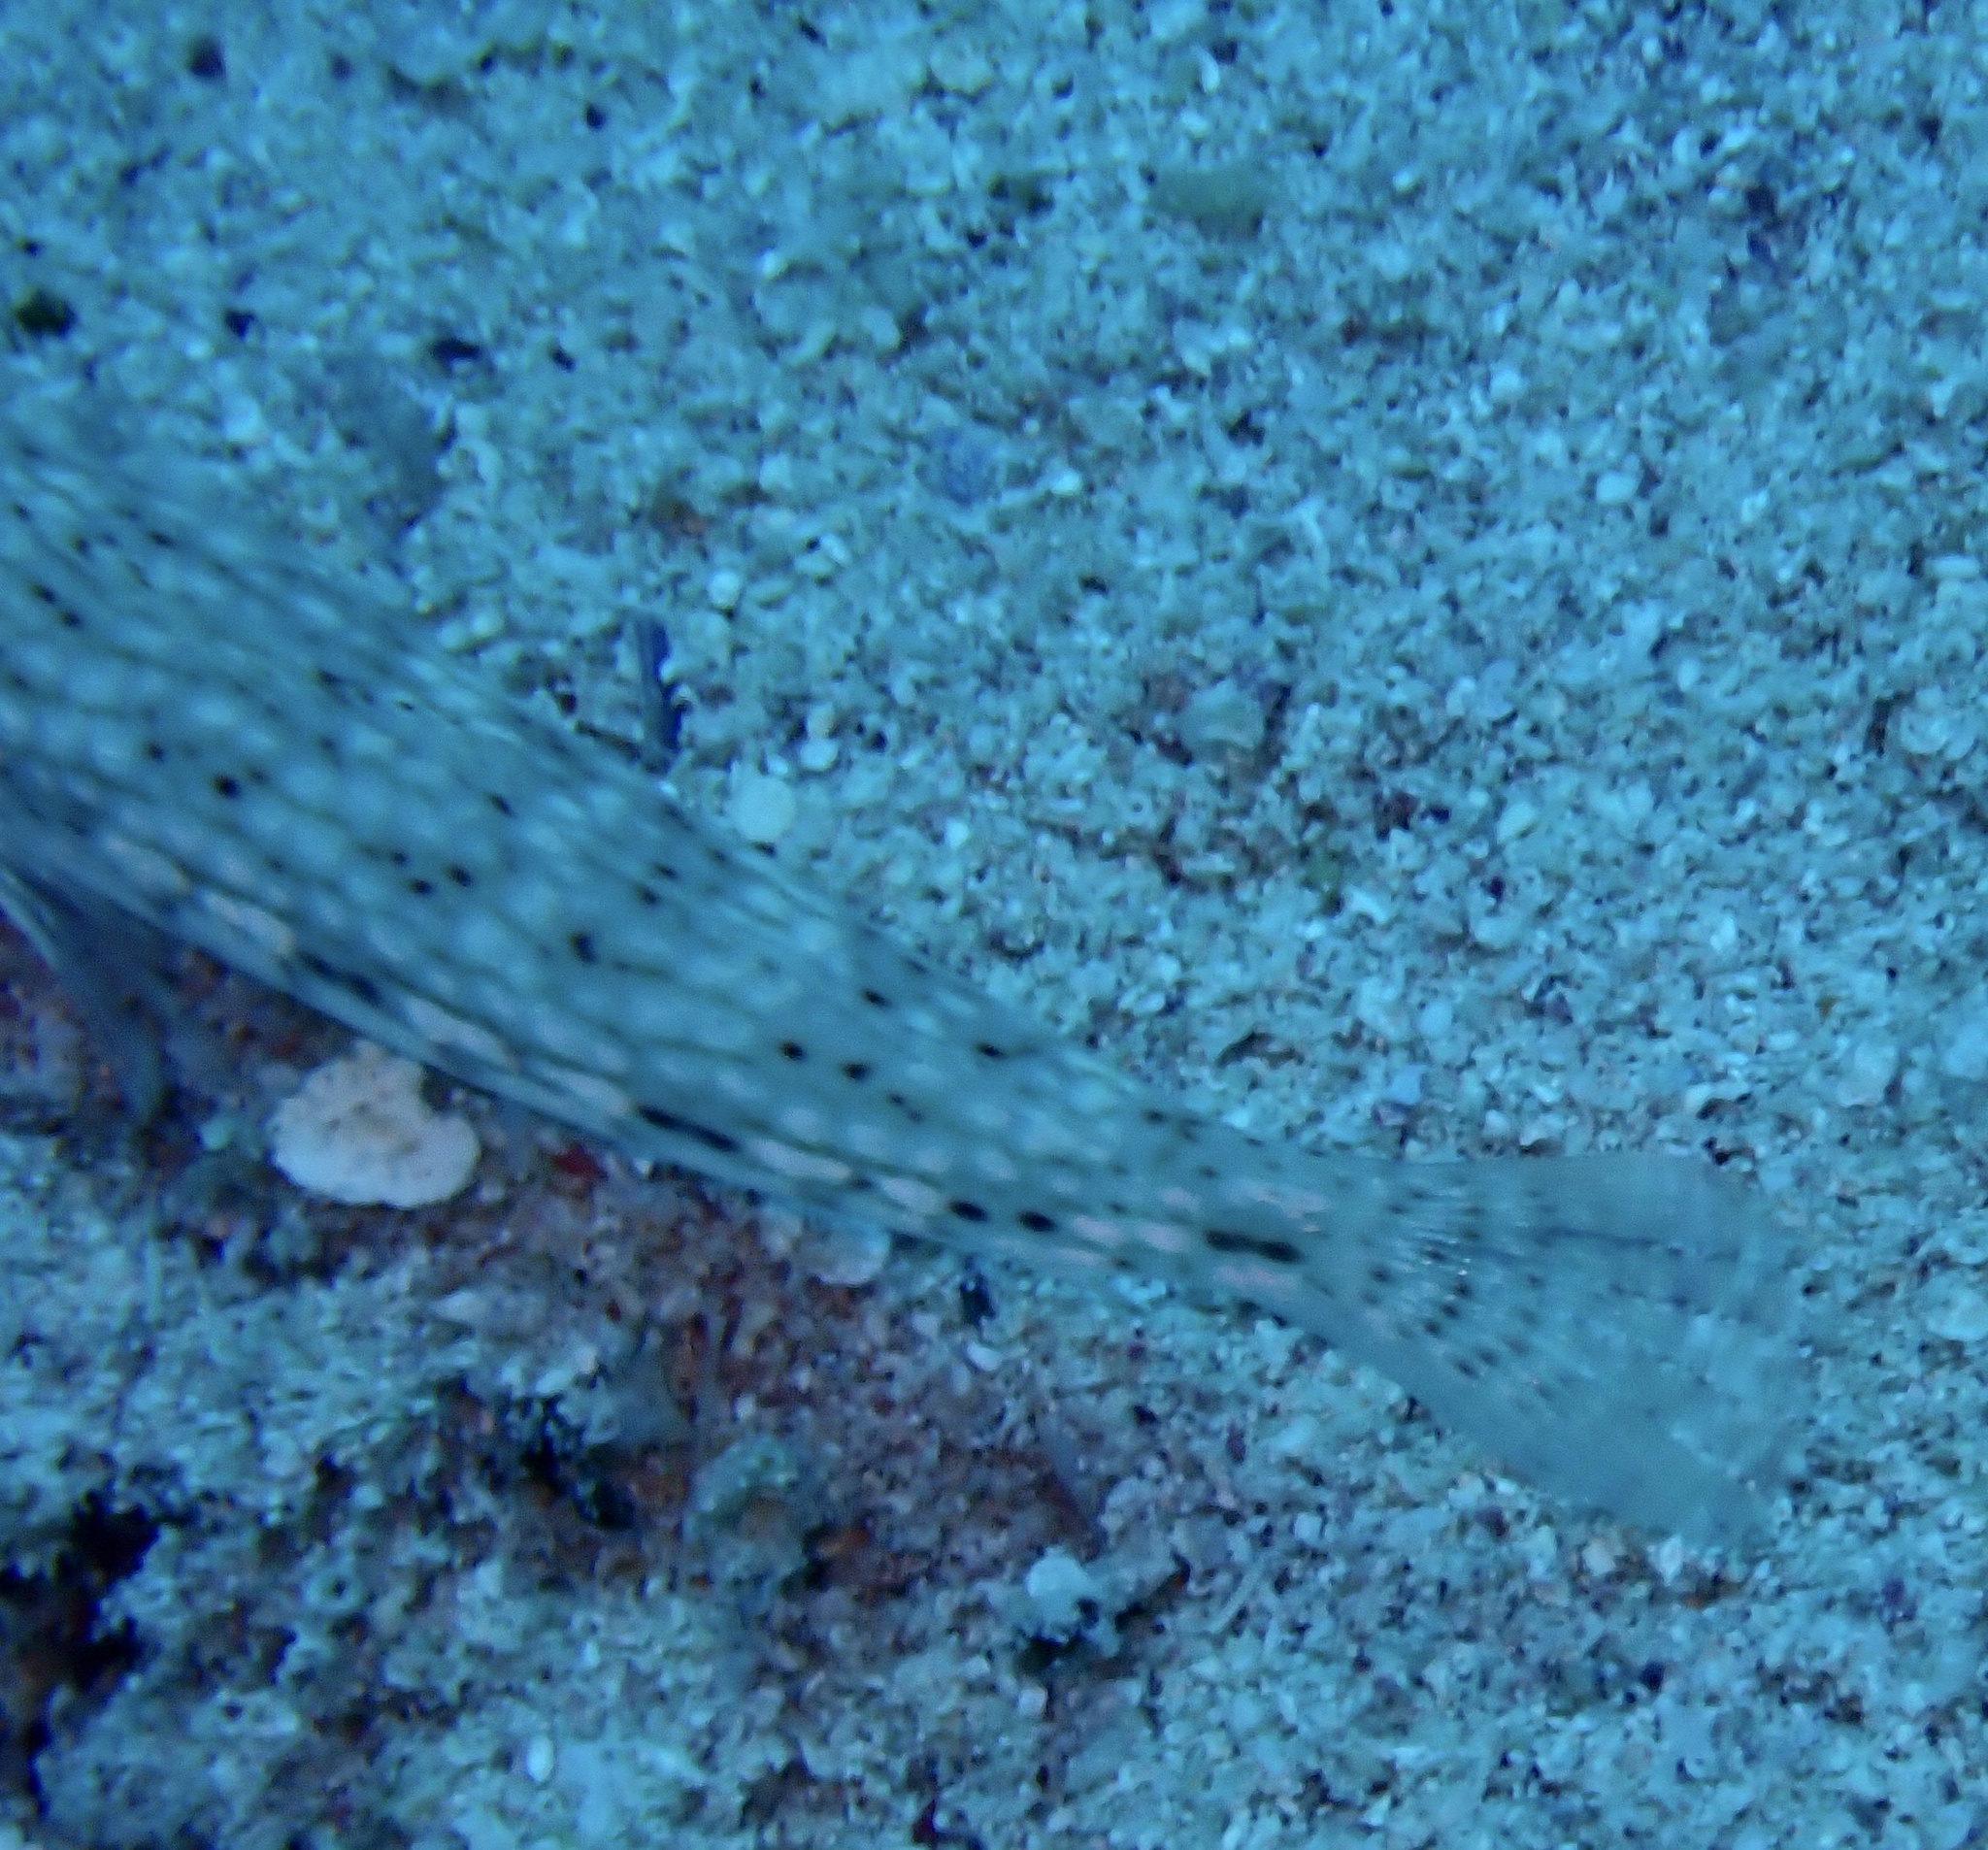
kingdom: Animalia
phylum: Chordata
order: Perciformes
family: Gobiidae
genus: Istigobius
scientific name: Istigobius decoratus
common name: Decorated goby
